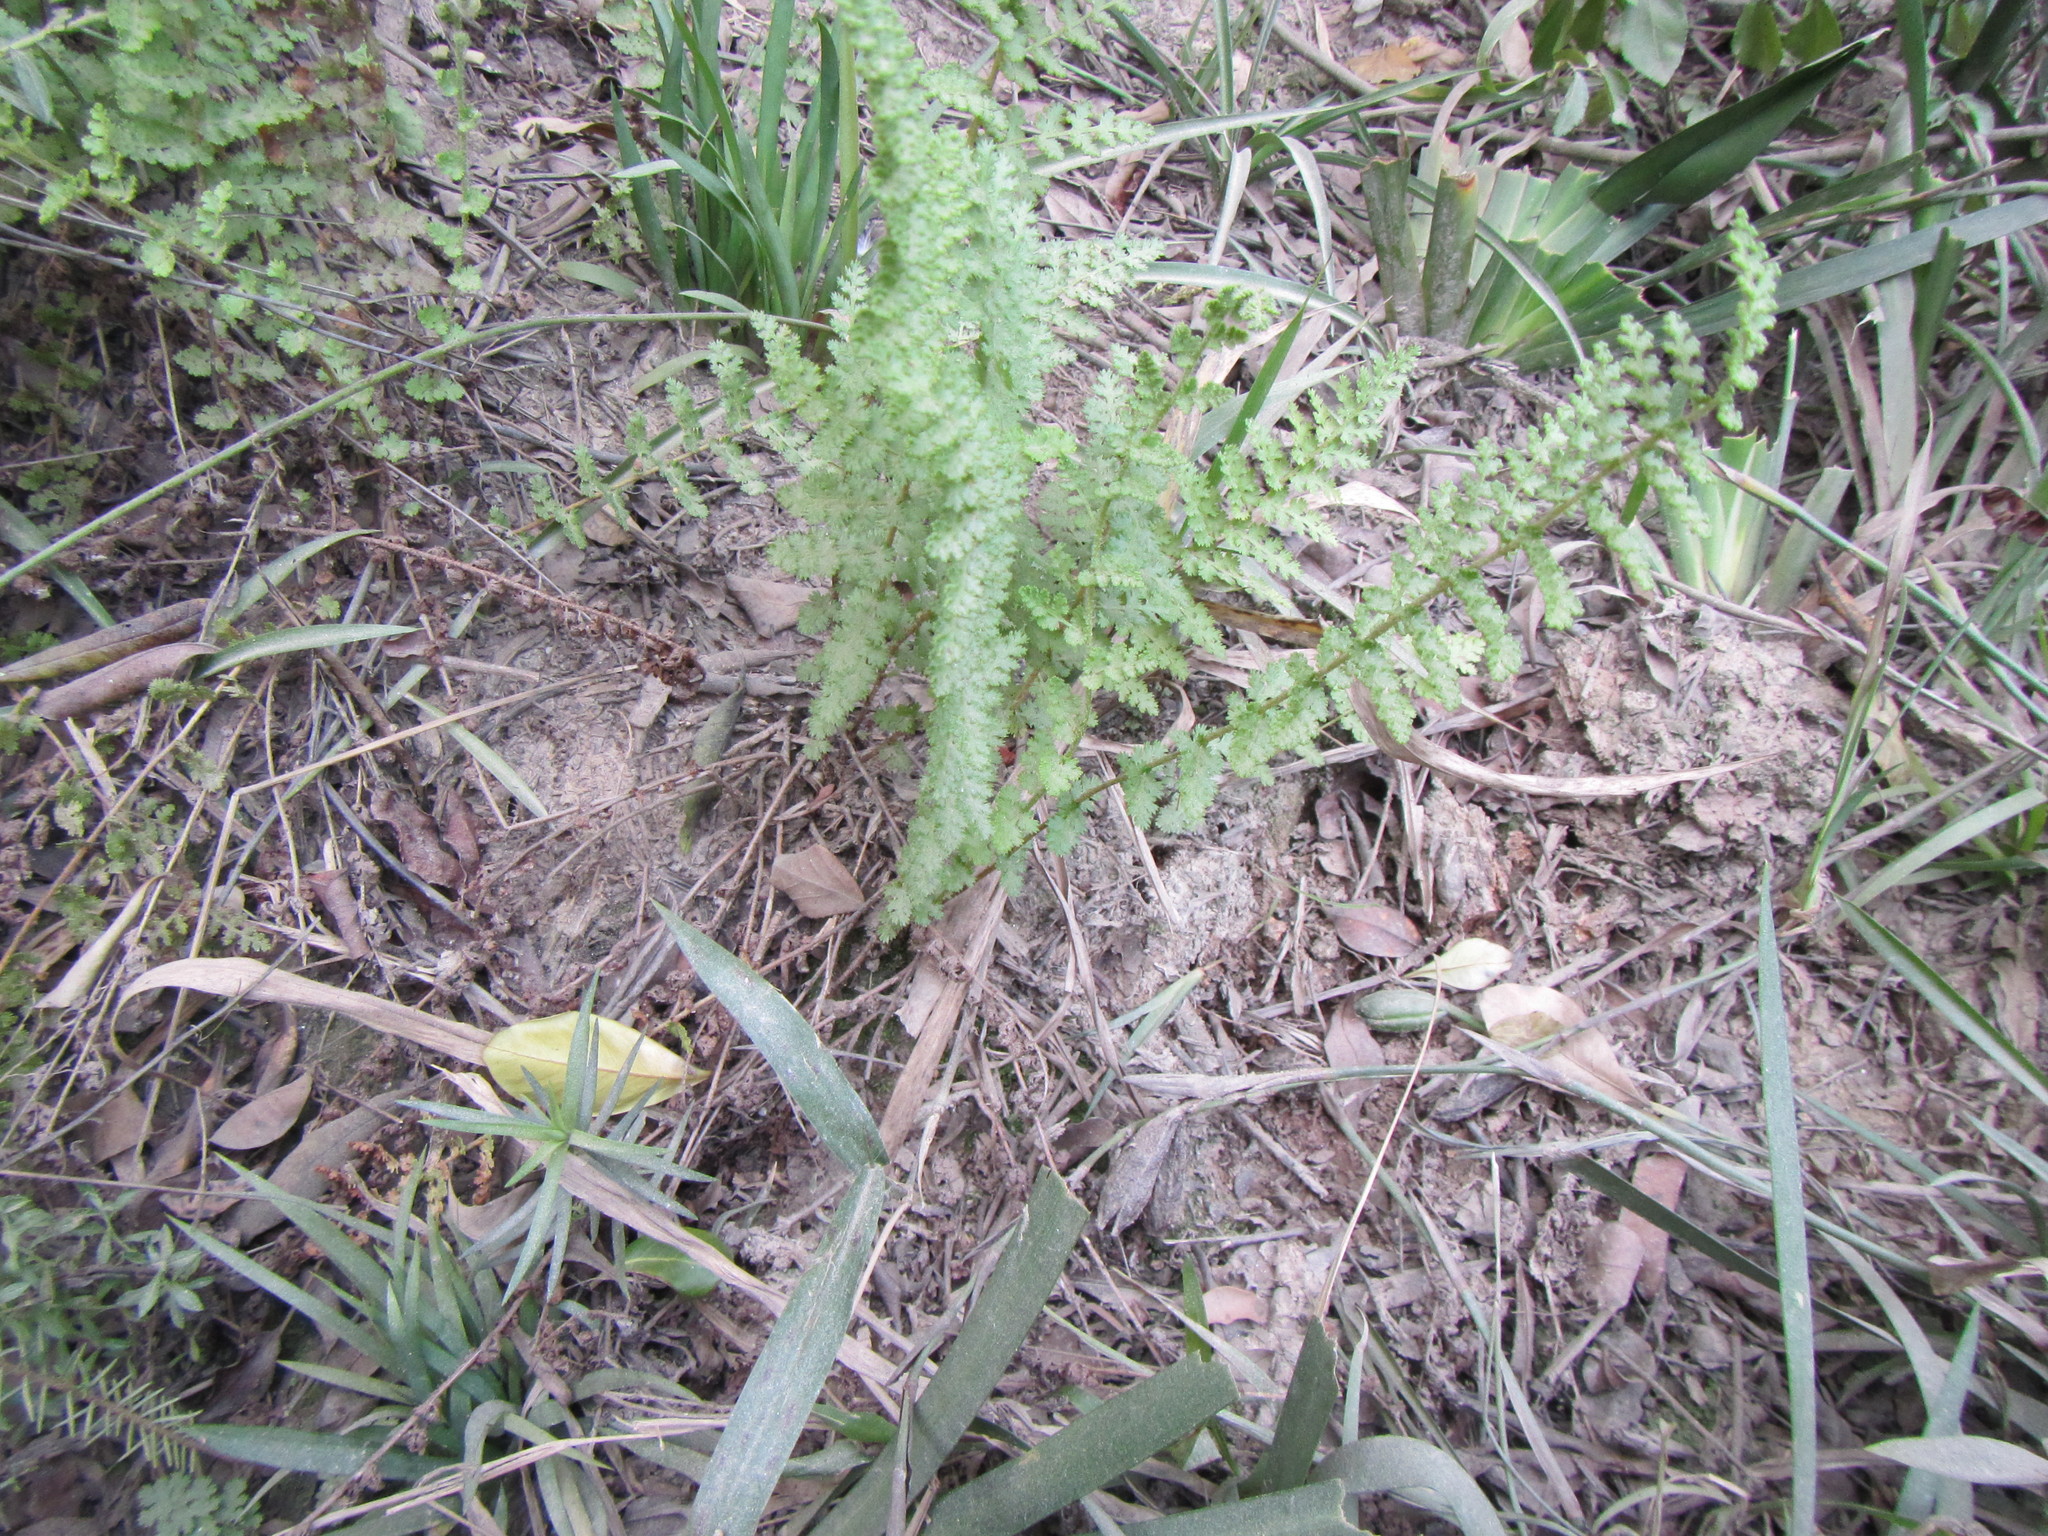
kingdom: Plantae
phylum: Tracheophyta
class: Polypodiopsida
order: Schizaeales
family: Anemiaceae
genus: Anemia
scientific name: Anemia caffrorum
